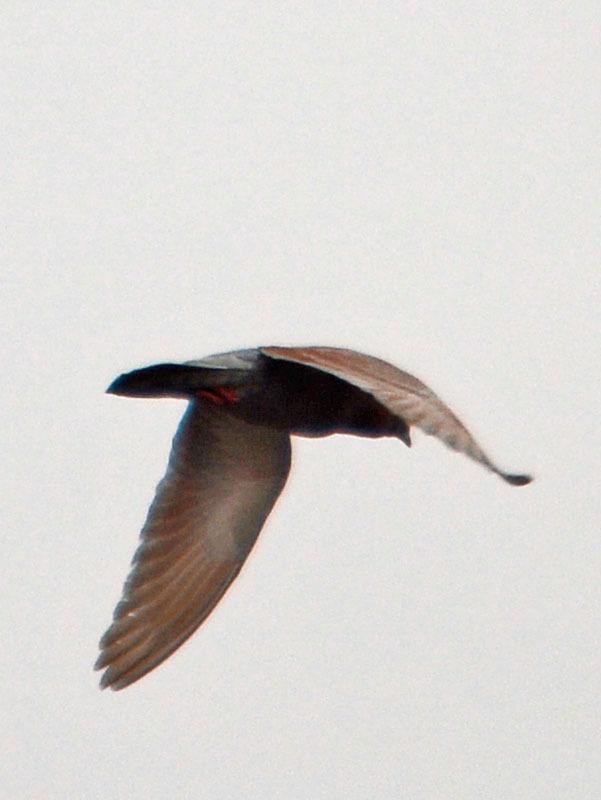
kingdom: Animalia
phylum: Chordata
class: Aves
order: Columbiformes
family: Columbidae
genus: Columba
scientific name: Columba livia
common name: Rock pigeon
